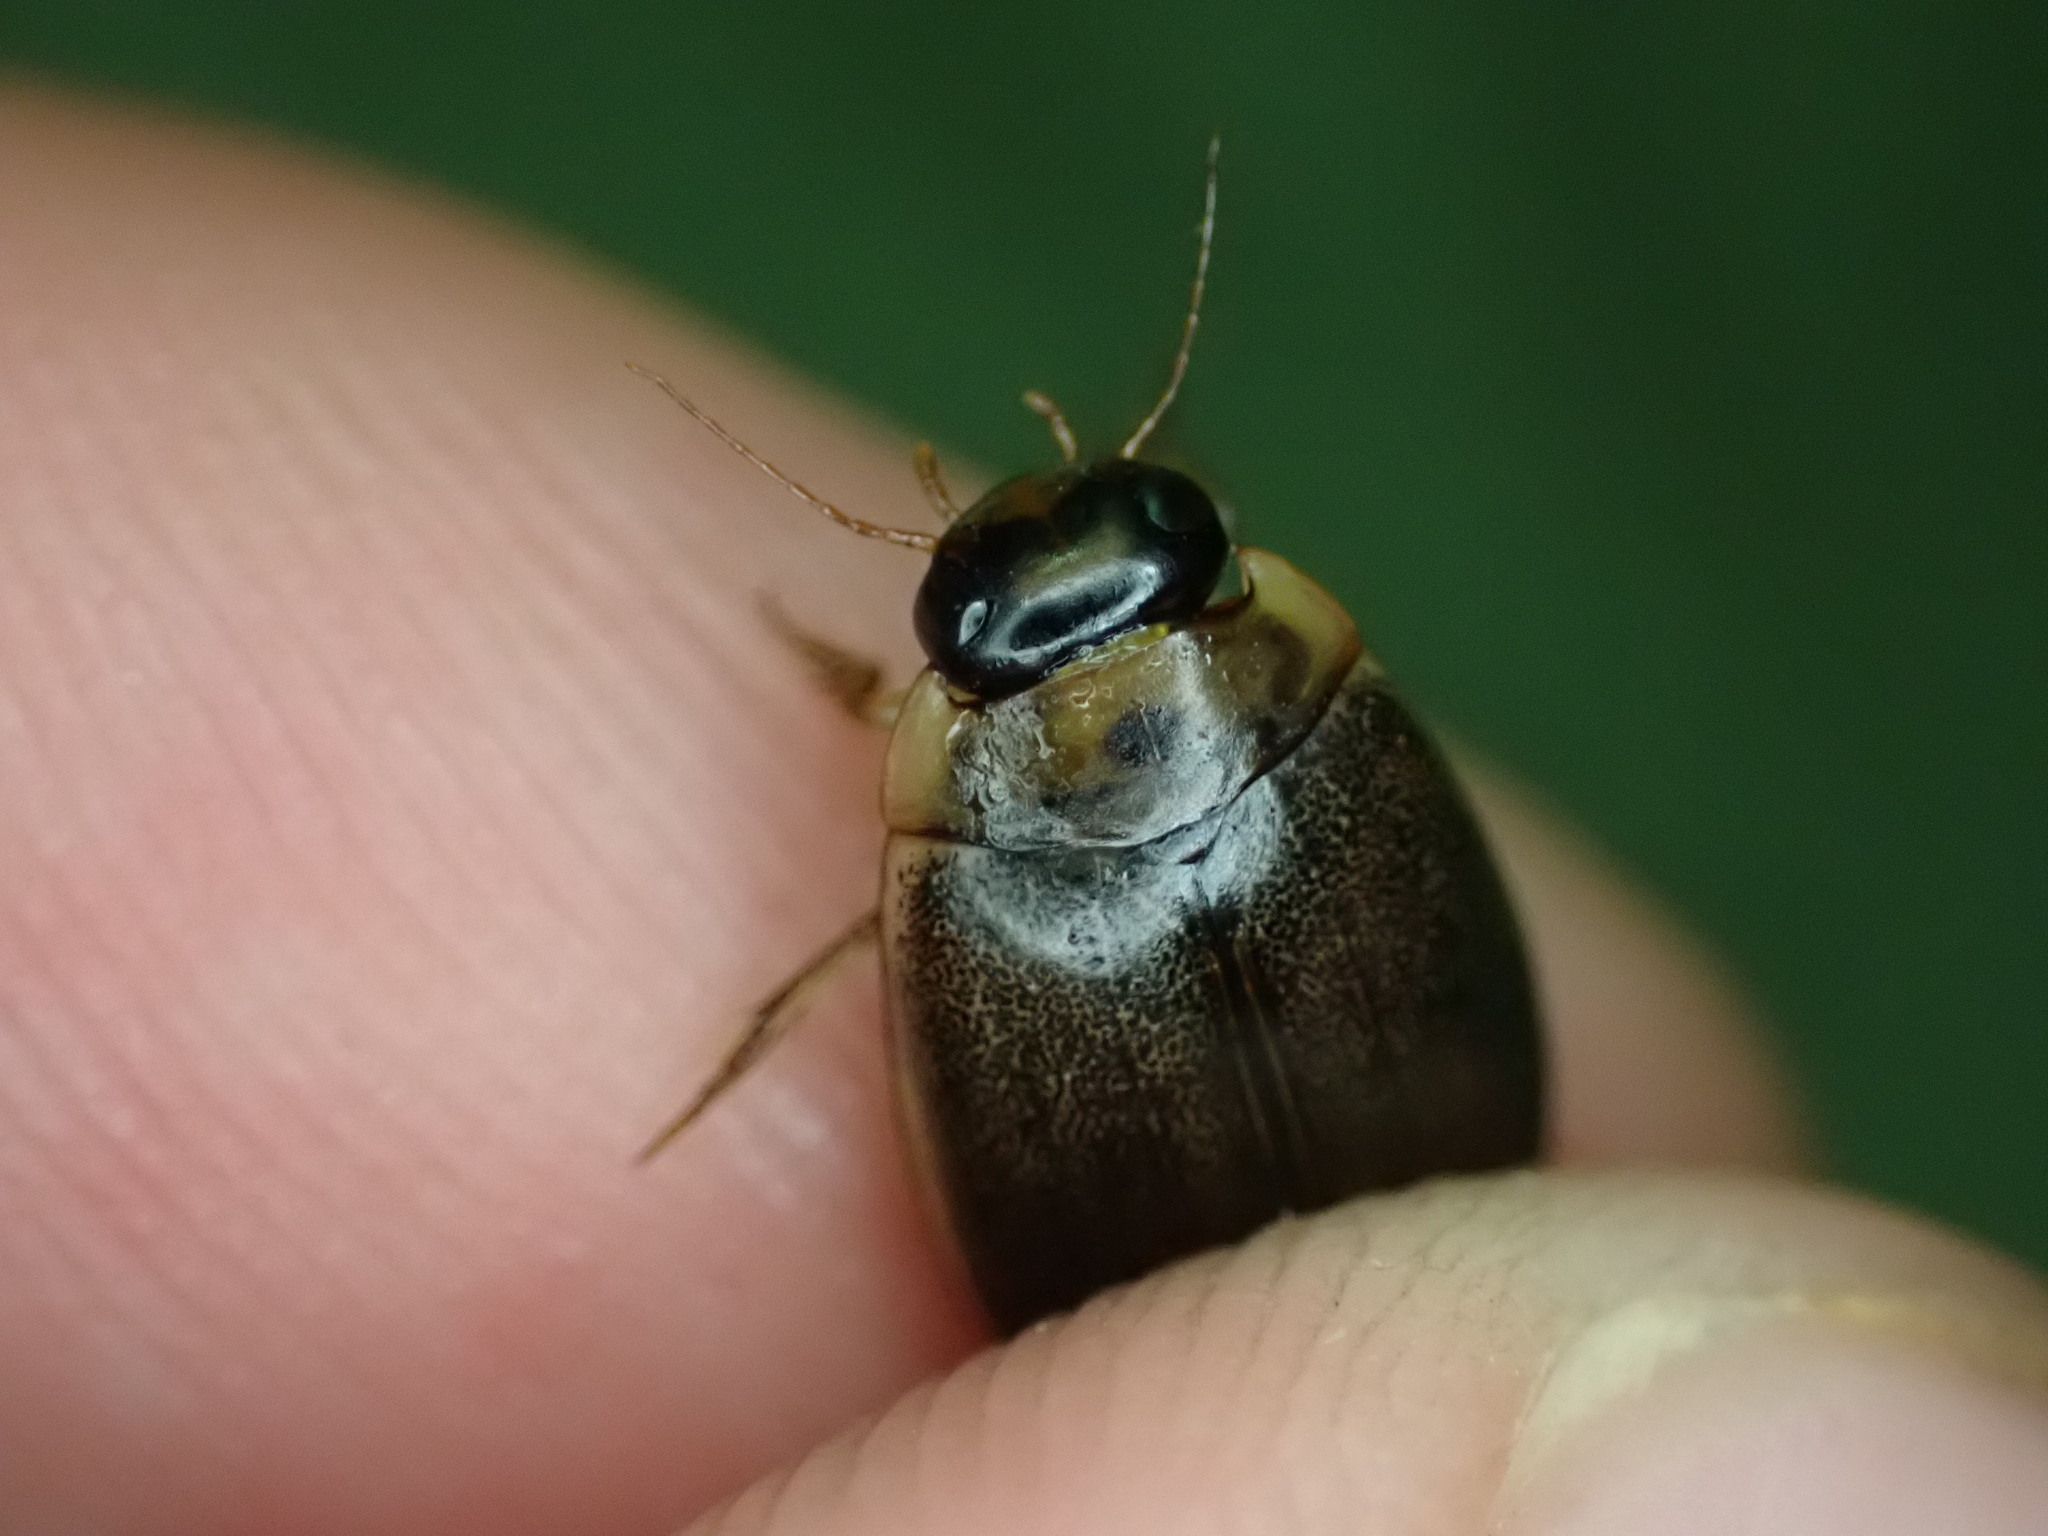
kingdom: Animalia
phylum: Arthropoda
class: Insecta
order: Coleoptera
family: Dytiscidae
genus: Rhantus
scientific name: Rhantus
